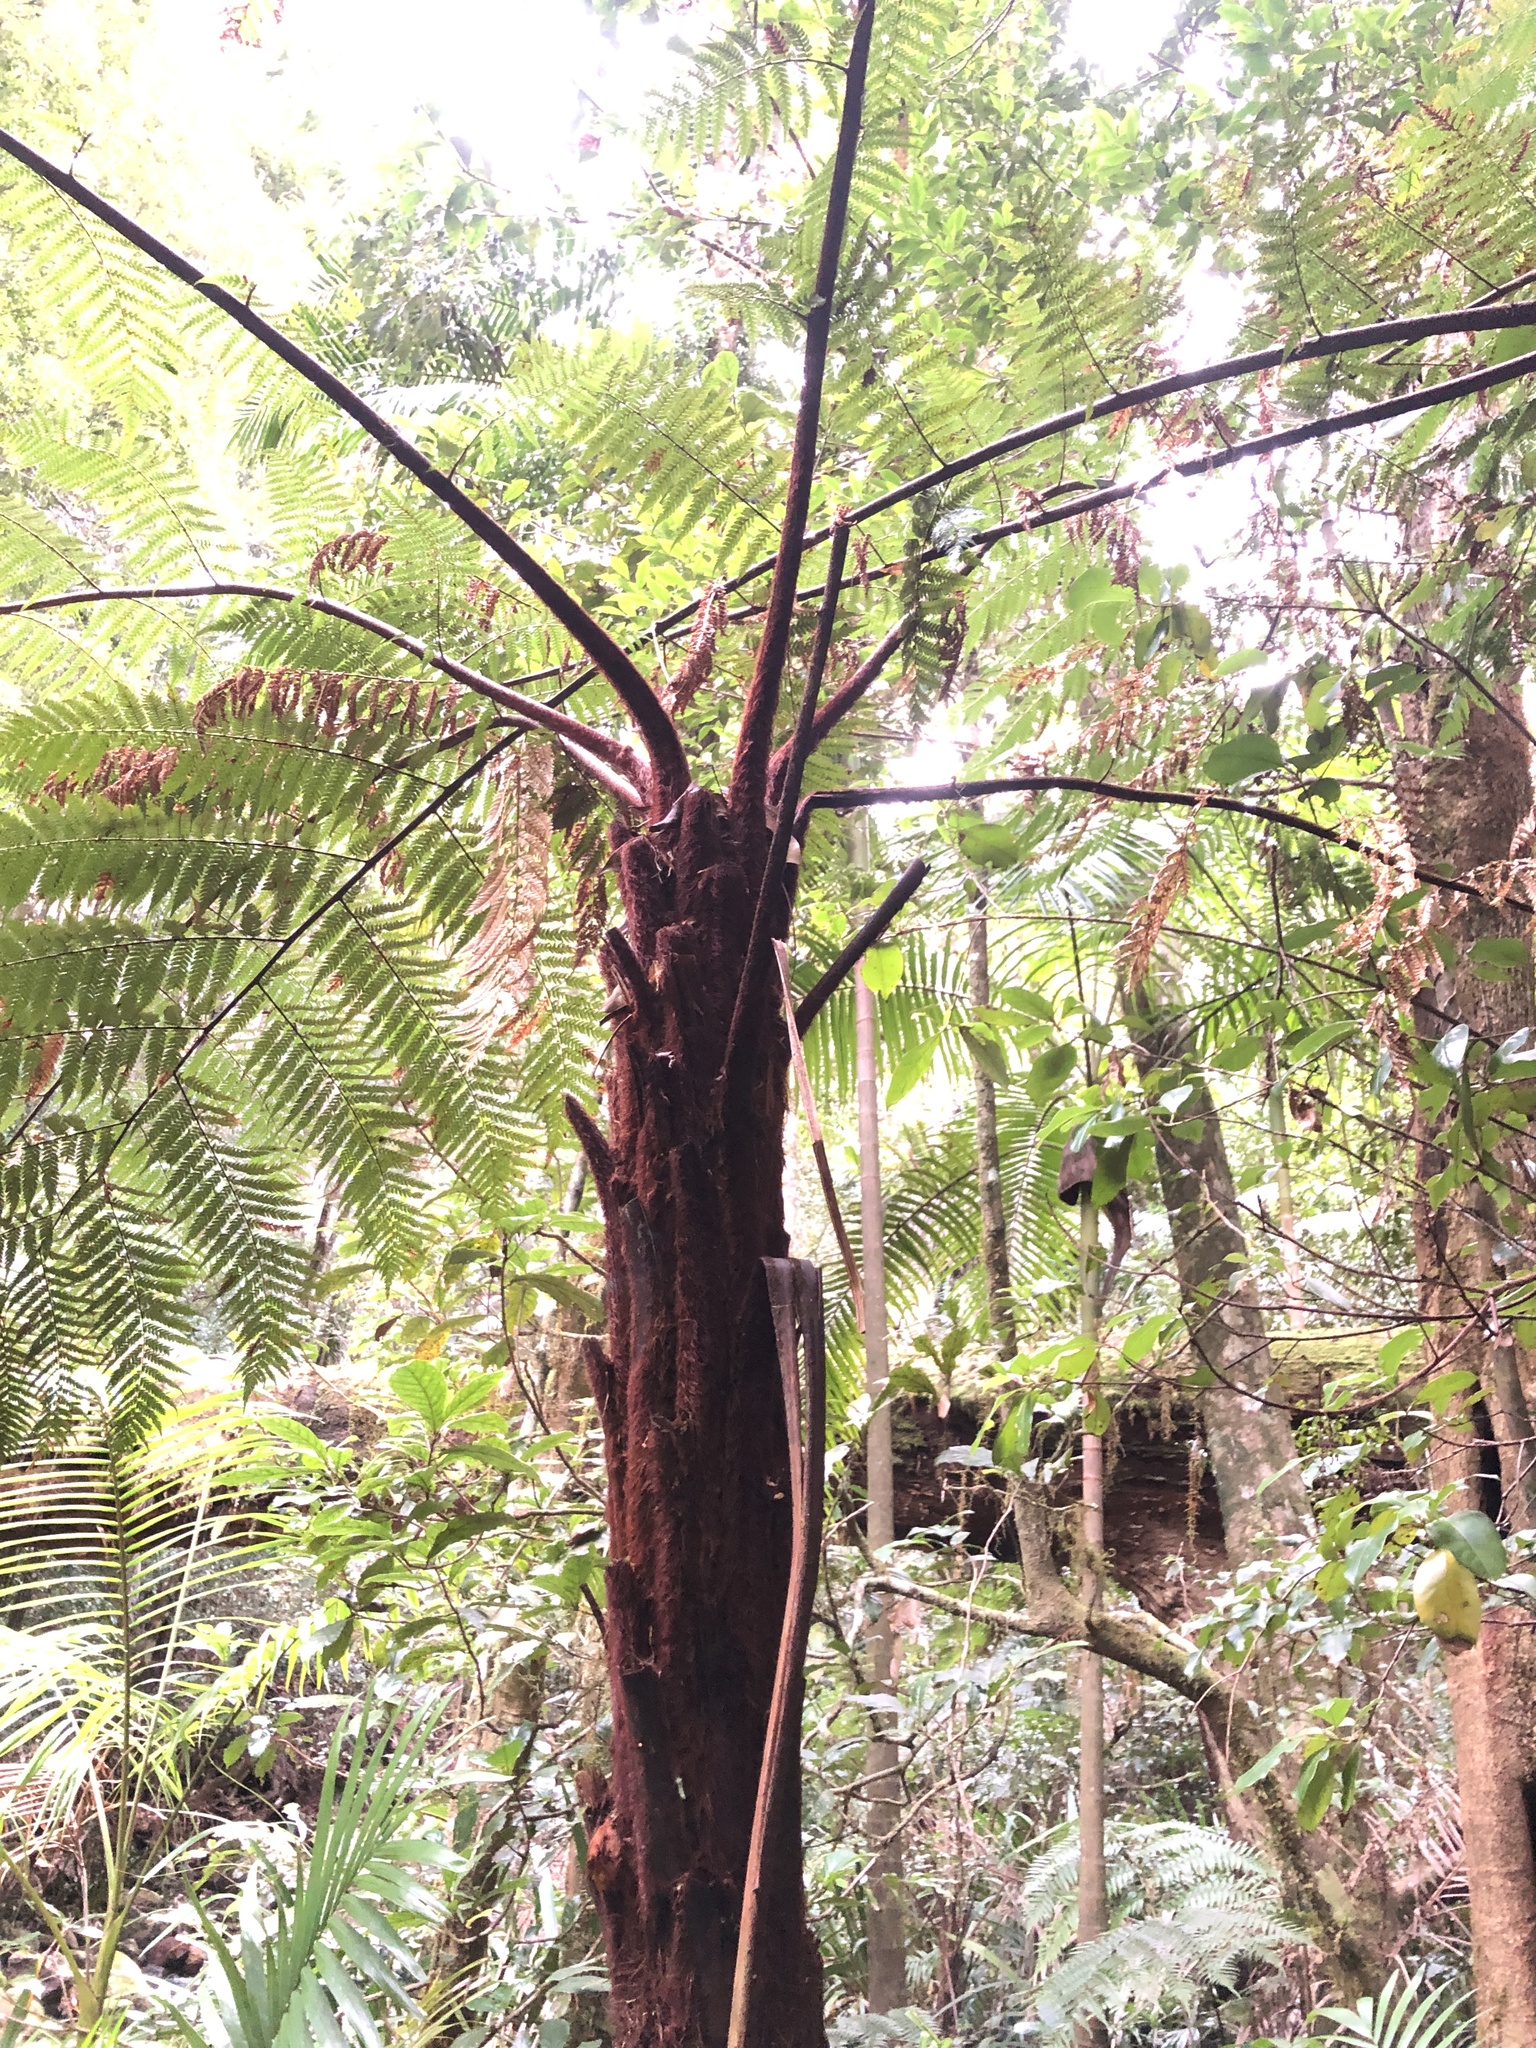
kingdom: Plantae
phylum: Tracheophyta
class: Polypodiopsida
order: Cyatheales
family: Dicksoniaceae
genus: Dicksonia
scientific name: Dicksonia youngiae
